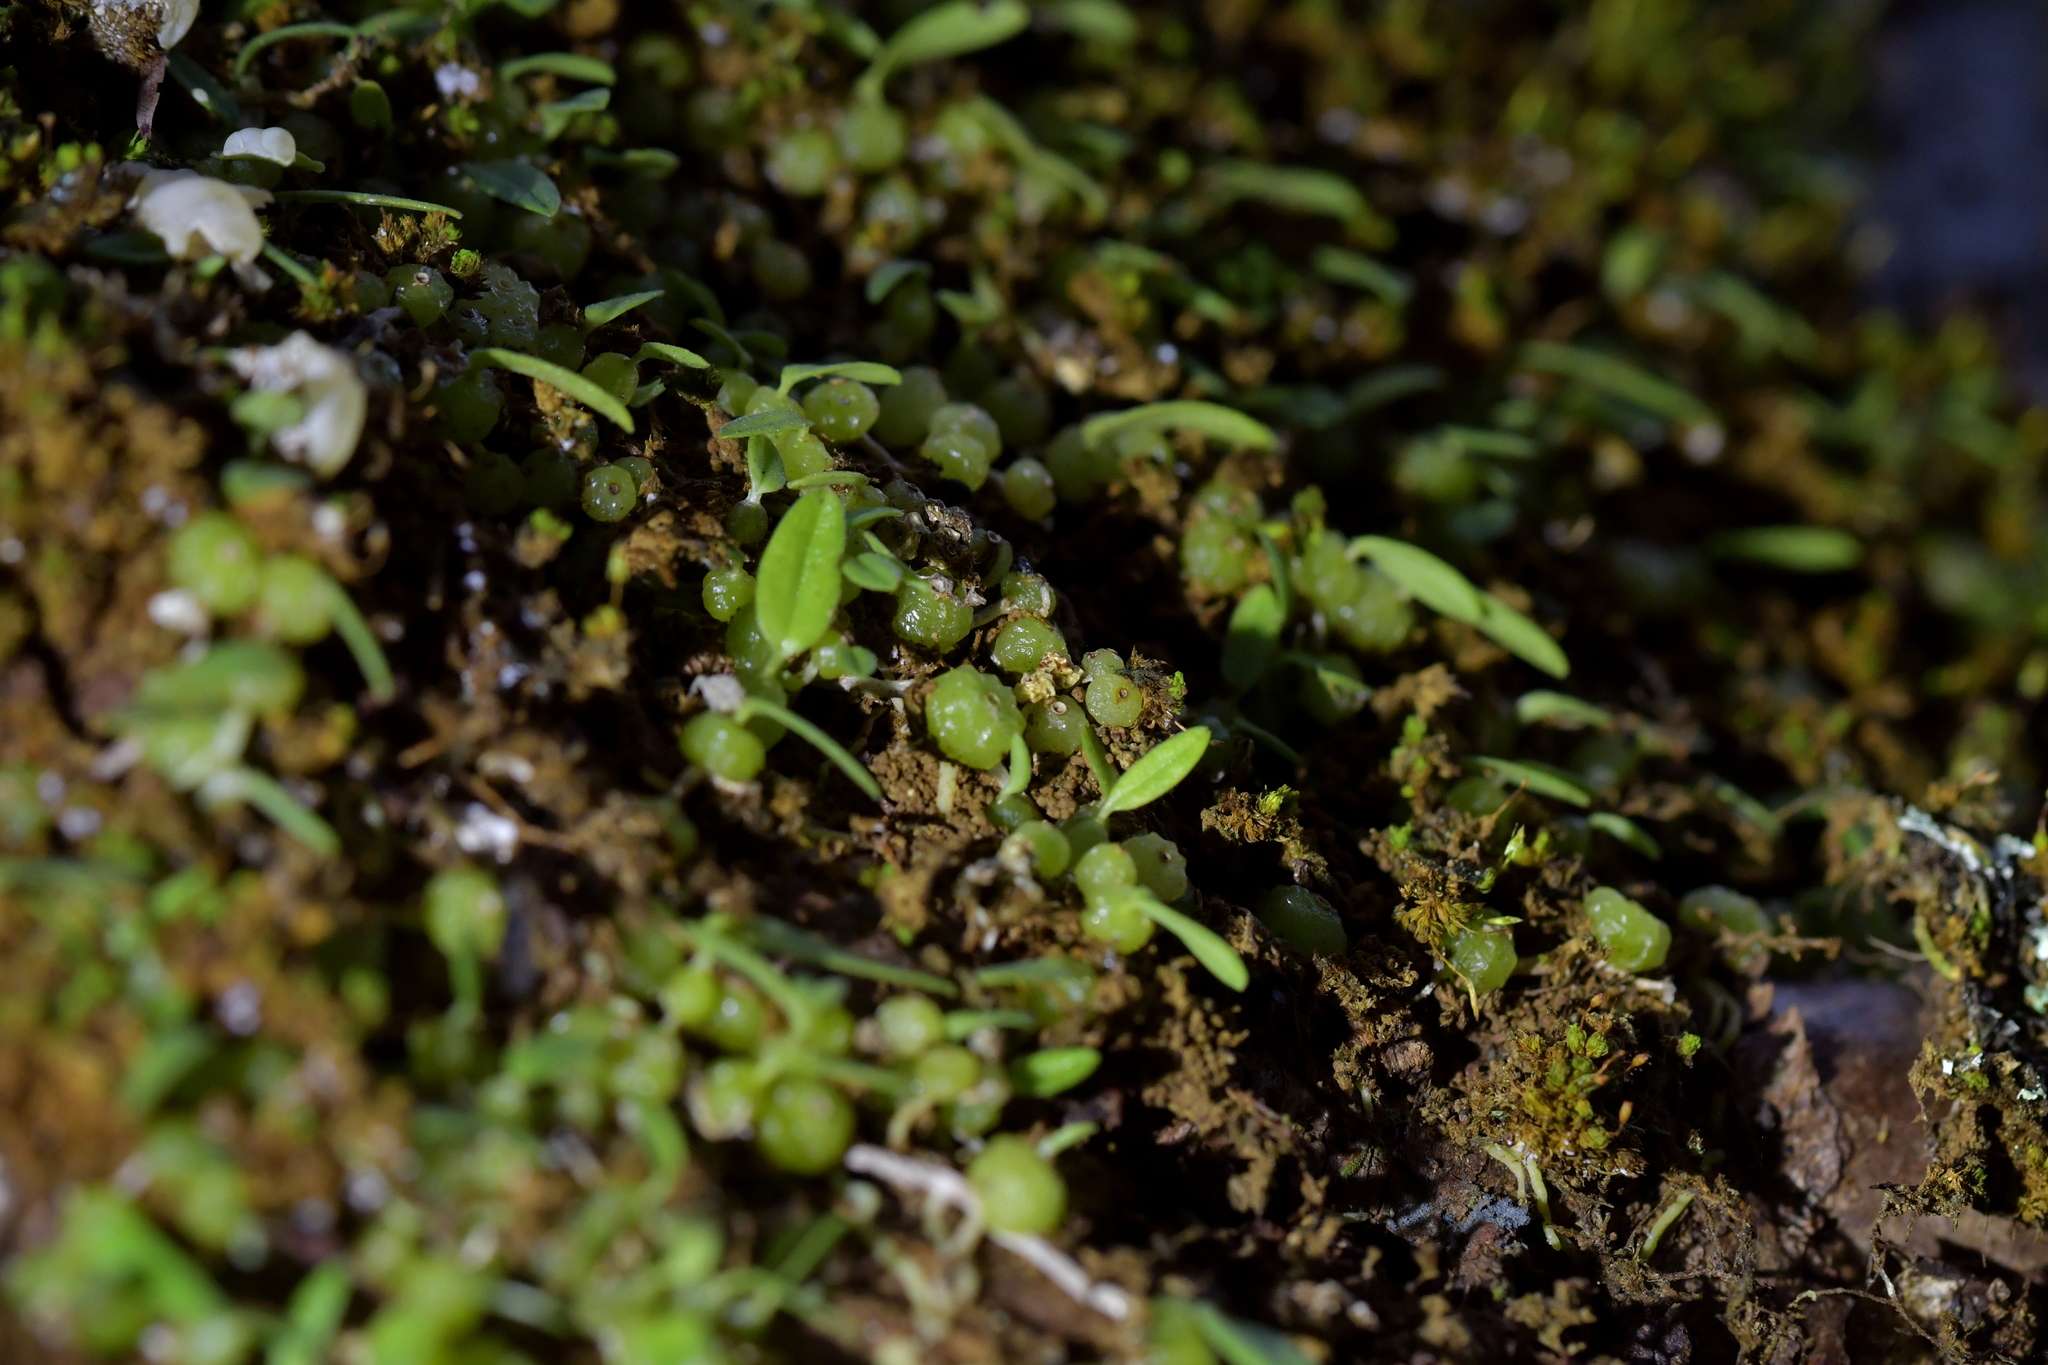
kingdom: Plantae
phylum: Tracheophyta
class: Liliopsida
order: Asparagales
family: Orchidaceae
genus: Bulbophyllum
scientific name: Bulbophyllum pygmaeum
